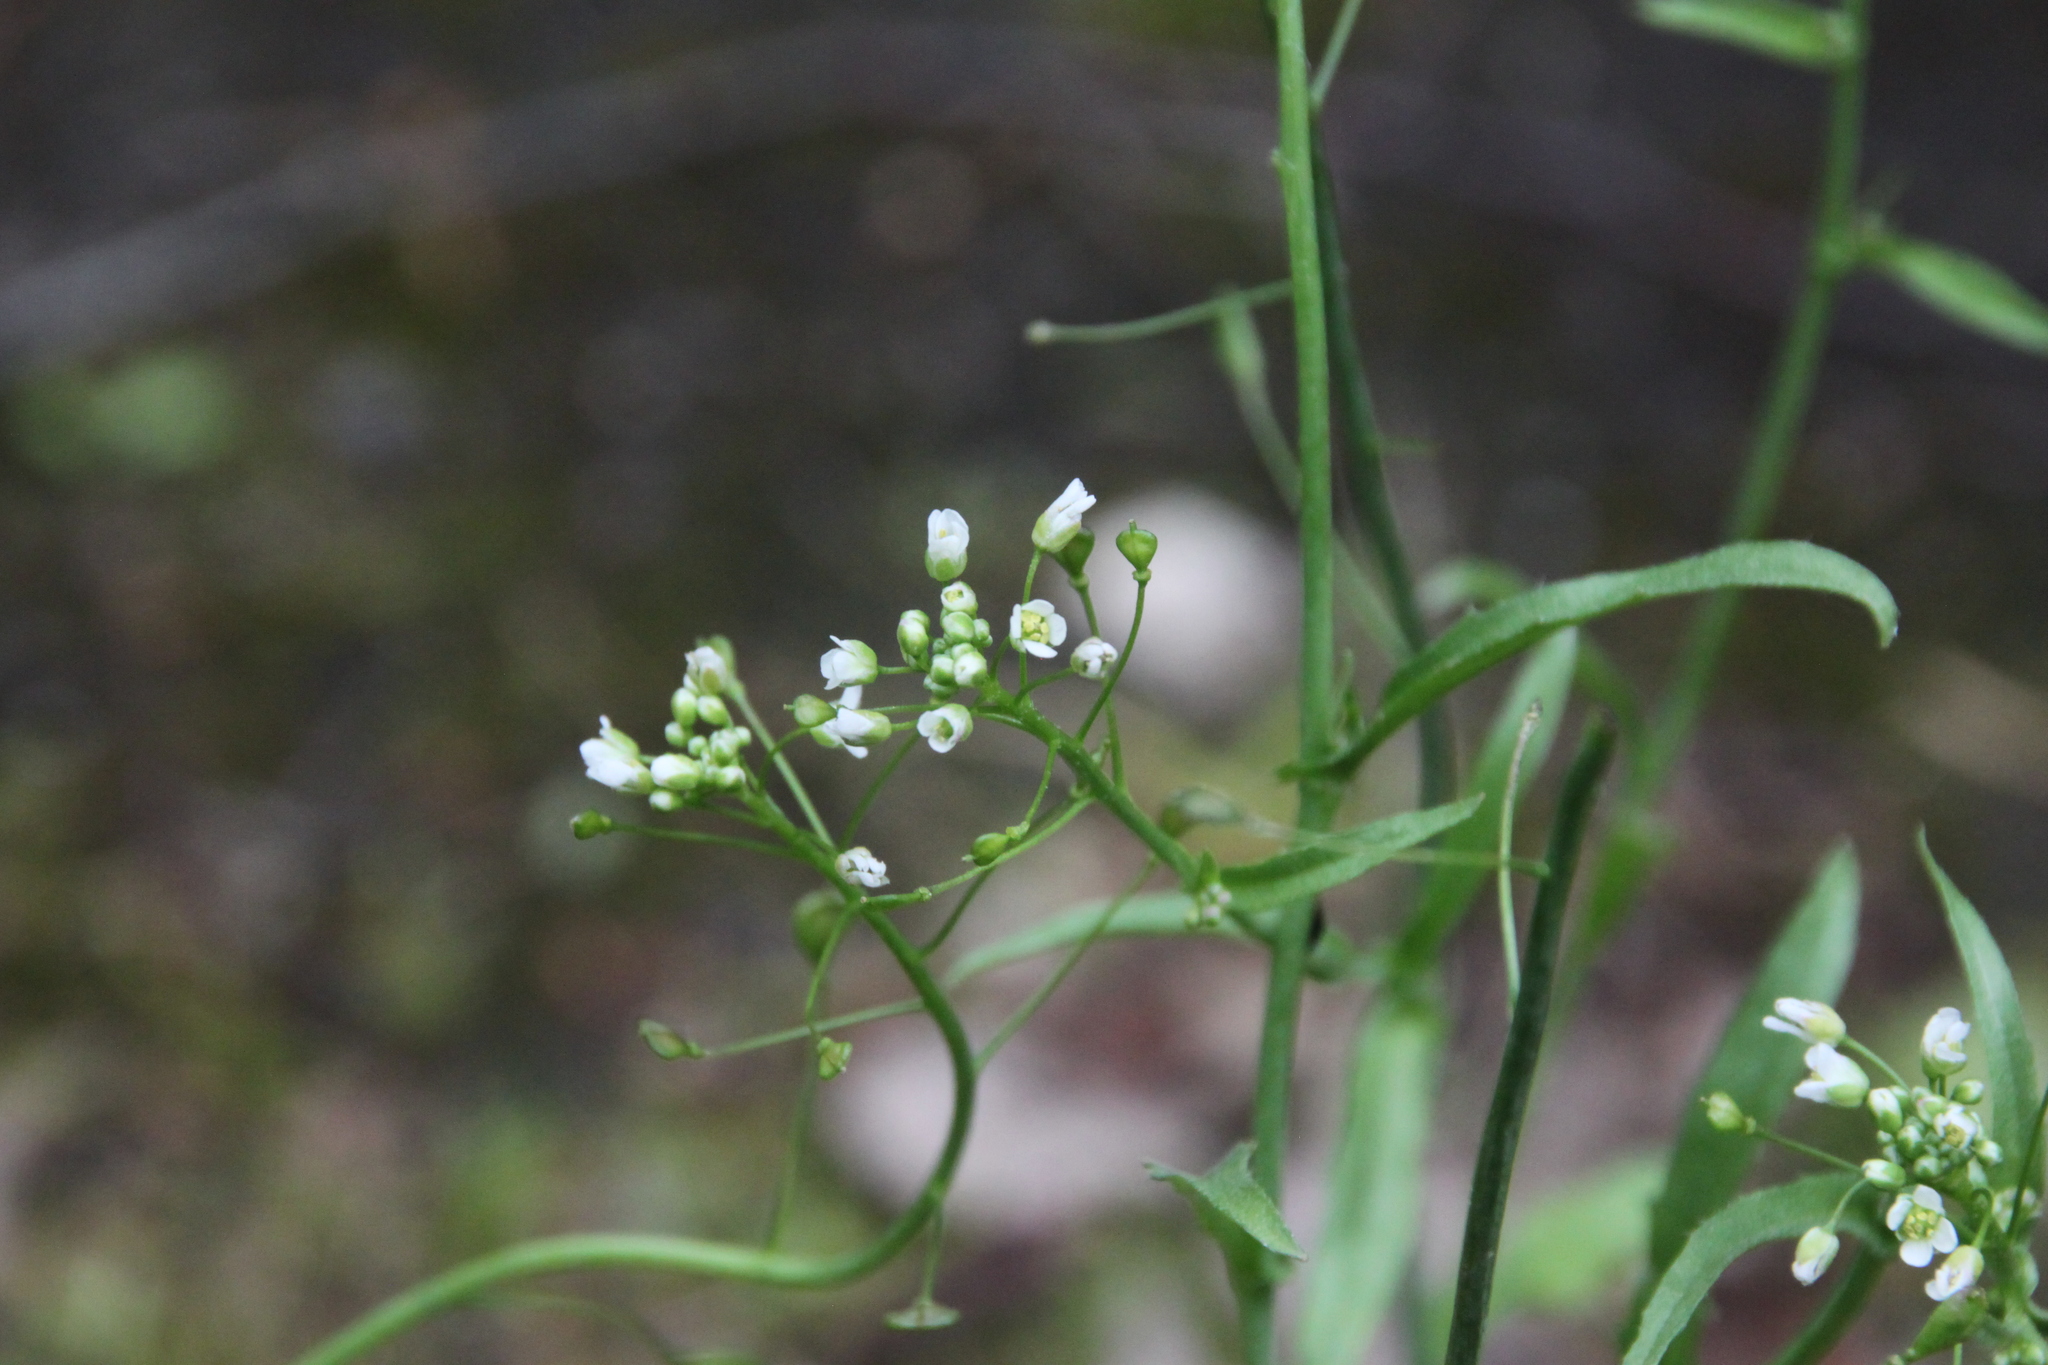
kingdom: Plantae
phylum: Tracheophyta
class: Magnoliopsida
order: Brassicales
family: Brassicaceae
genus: Capsella
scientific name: Capsella bursa-pastoris
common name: Shepherd's purse
